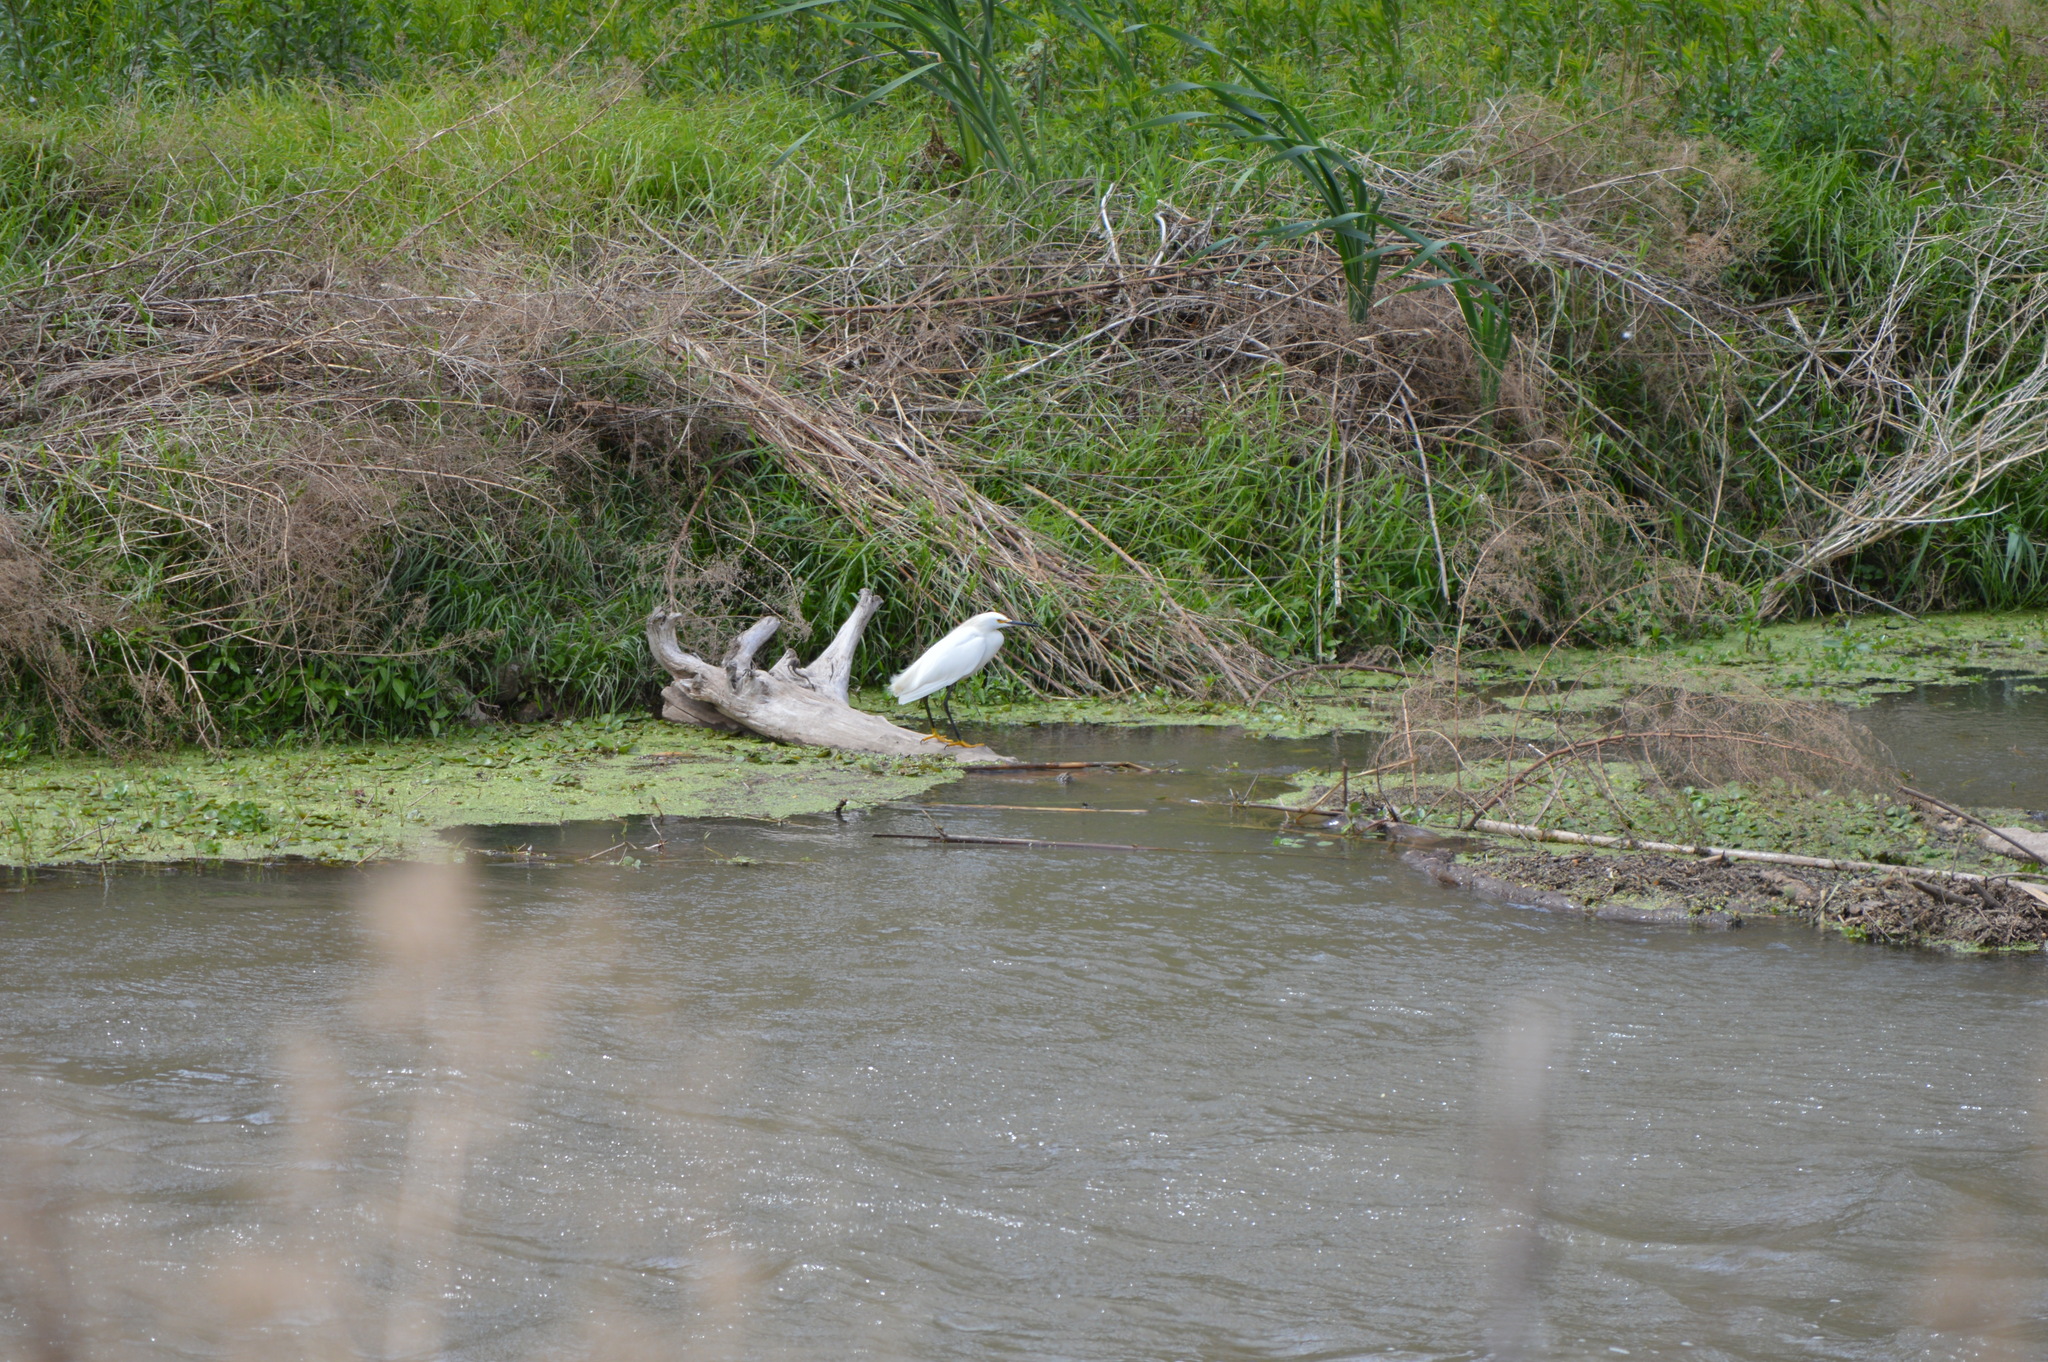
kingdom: Animalia
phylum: Chordata
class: Aves
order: Pelecaniformes
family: Ardeidae
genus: Egretta
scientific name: Egretta thula
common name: Snowy egret
